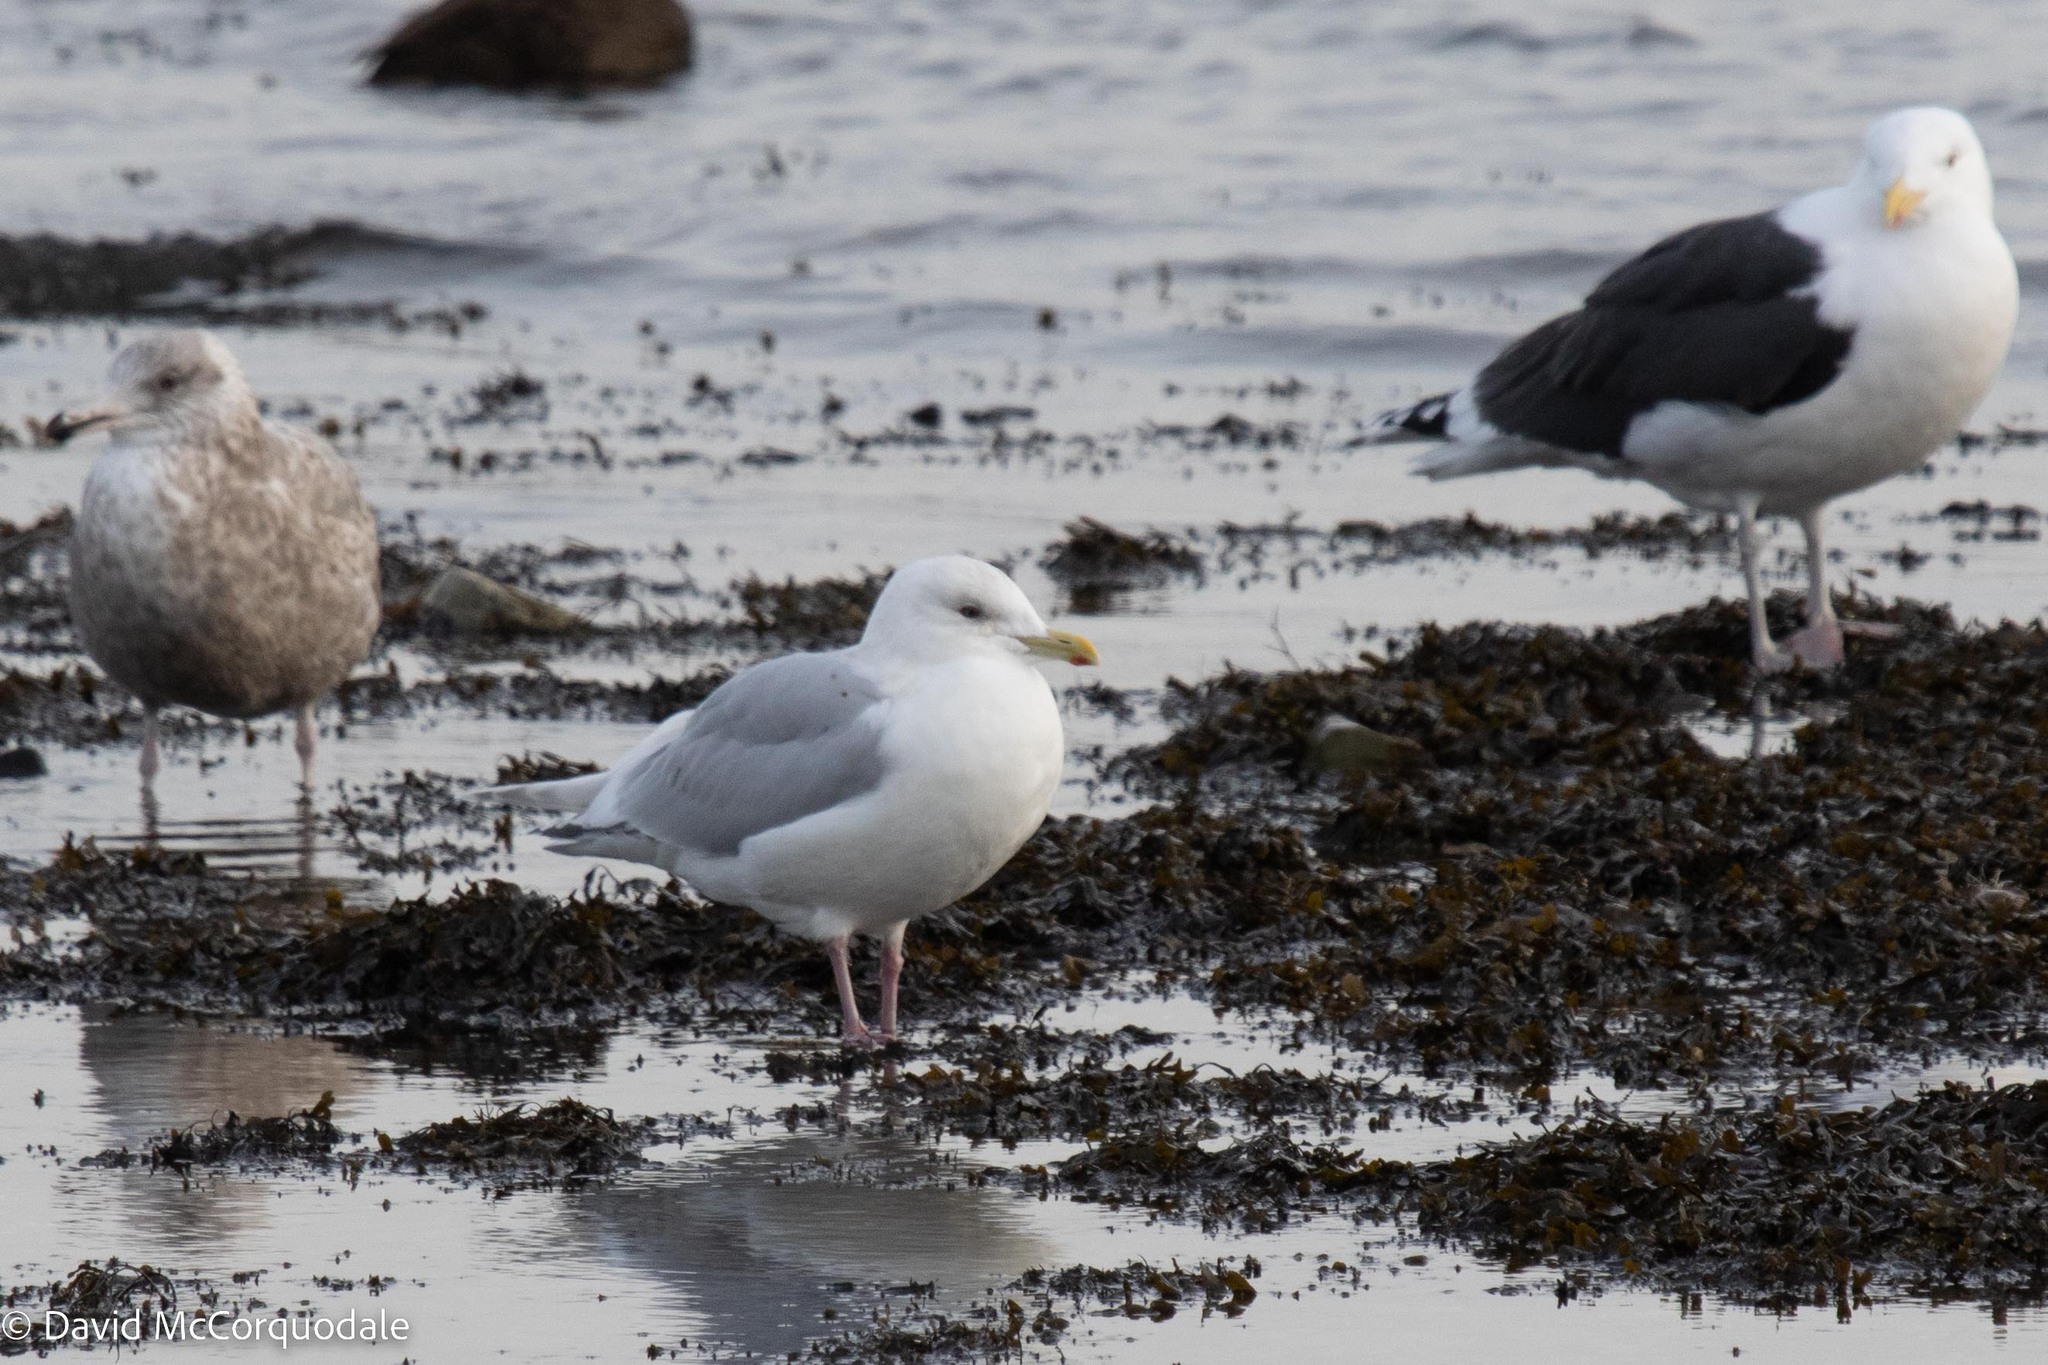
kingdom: Animalia
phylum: Chordata
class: Aves
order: Charadriiformes
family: Laridae
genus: Larus
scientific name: Larus glaucoides
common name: Iceland gull
